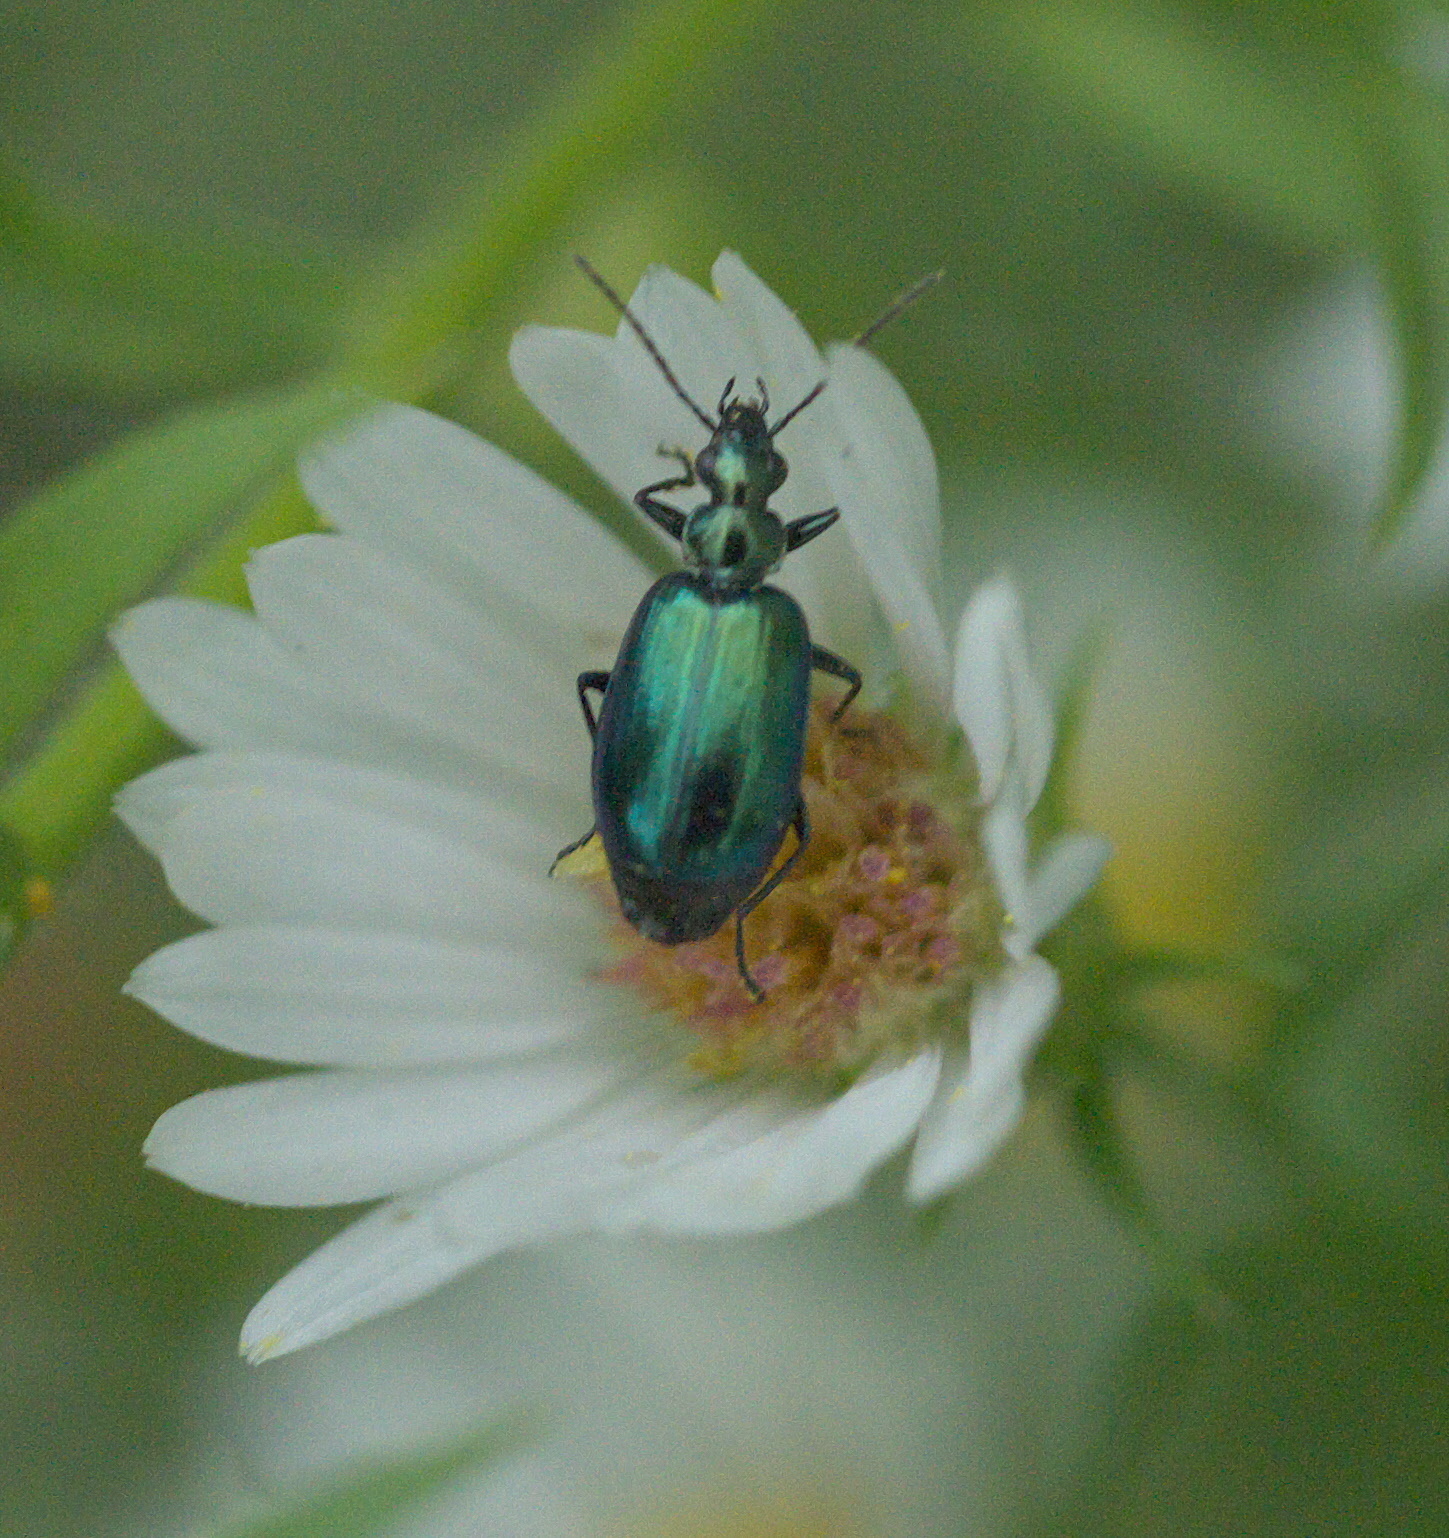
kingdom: Animalia
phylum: Arthropoda
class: Insecta
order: Coleoptera
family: Carabidae
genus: Lebia
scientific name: Lebia viridis
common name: Flower lebia beetle
